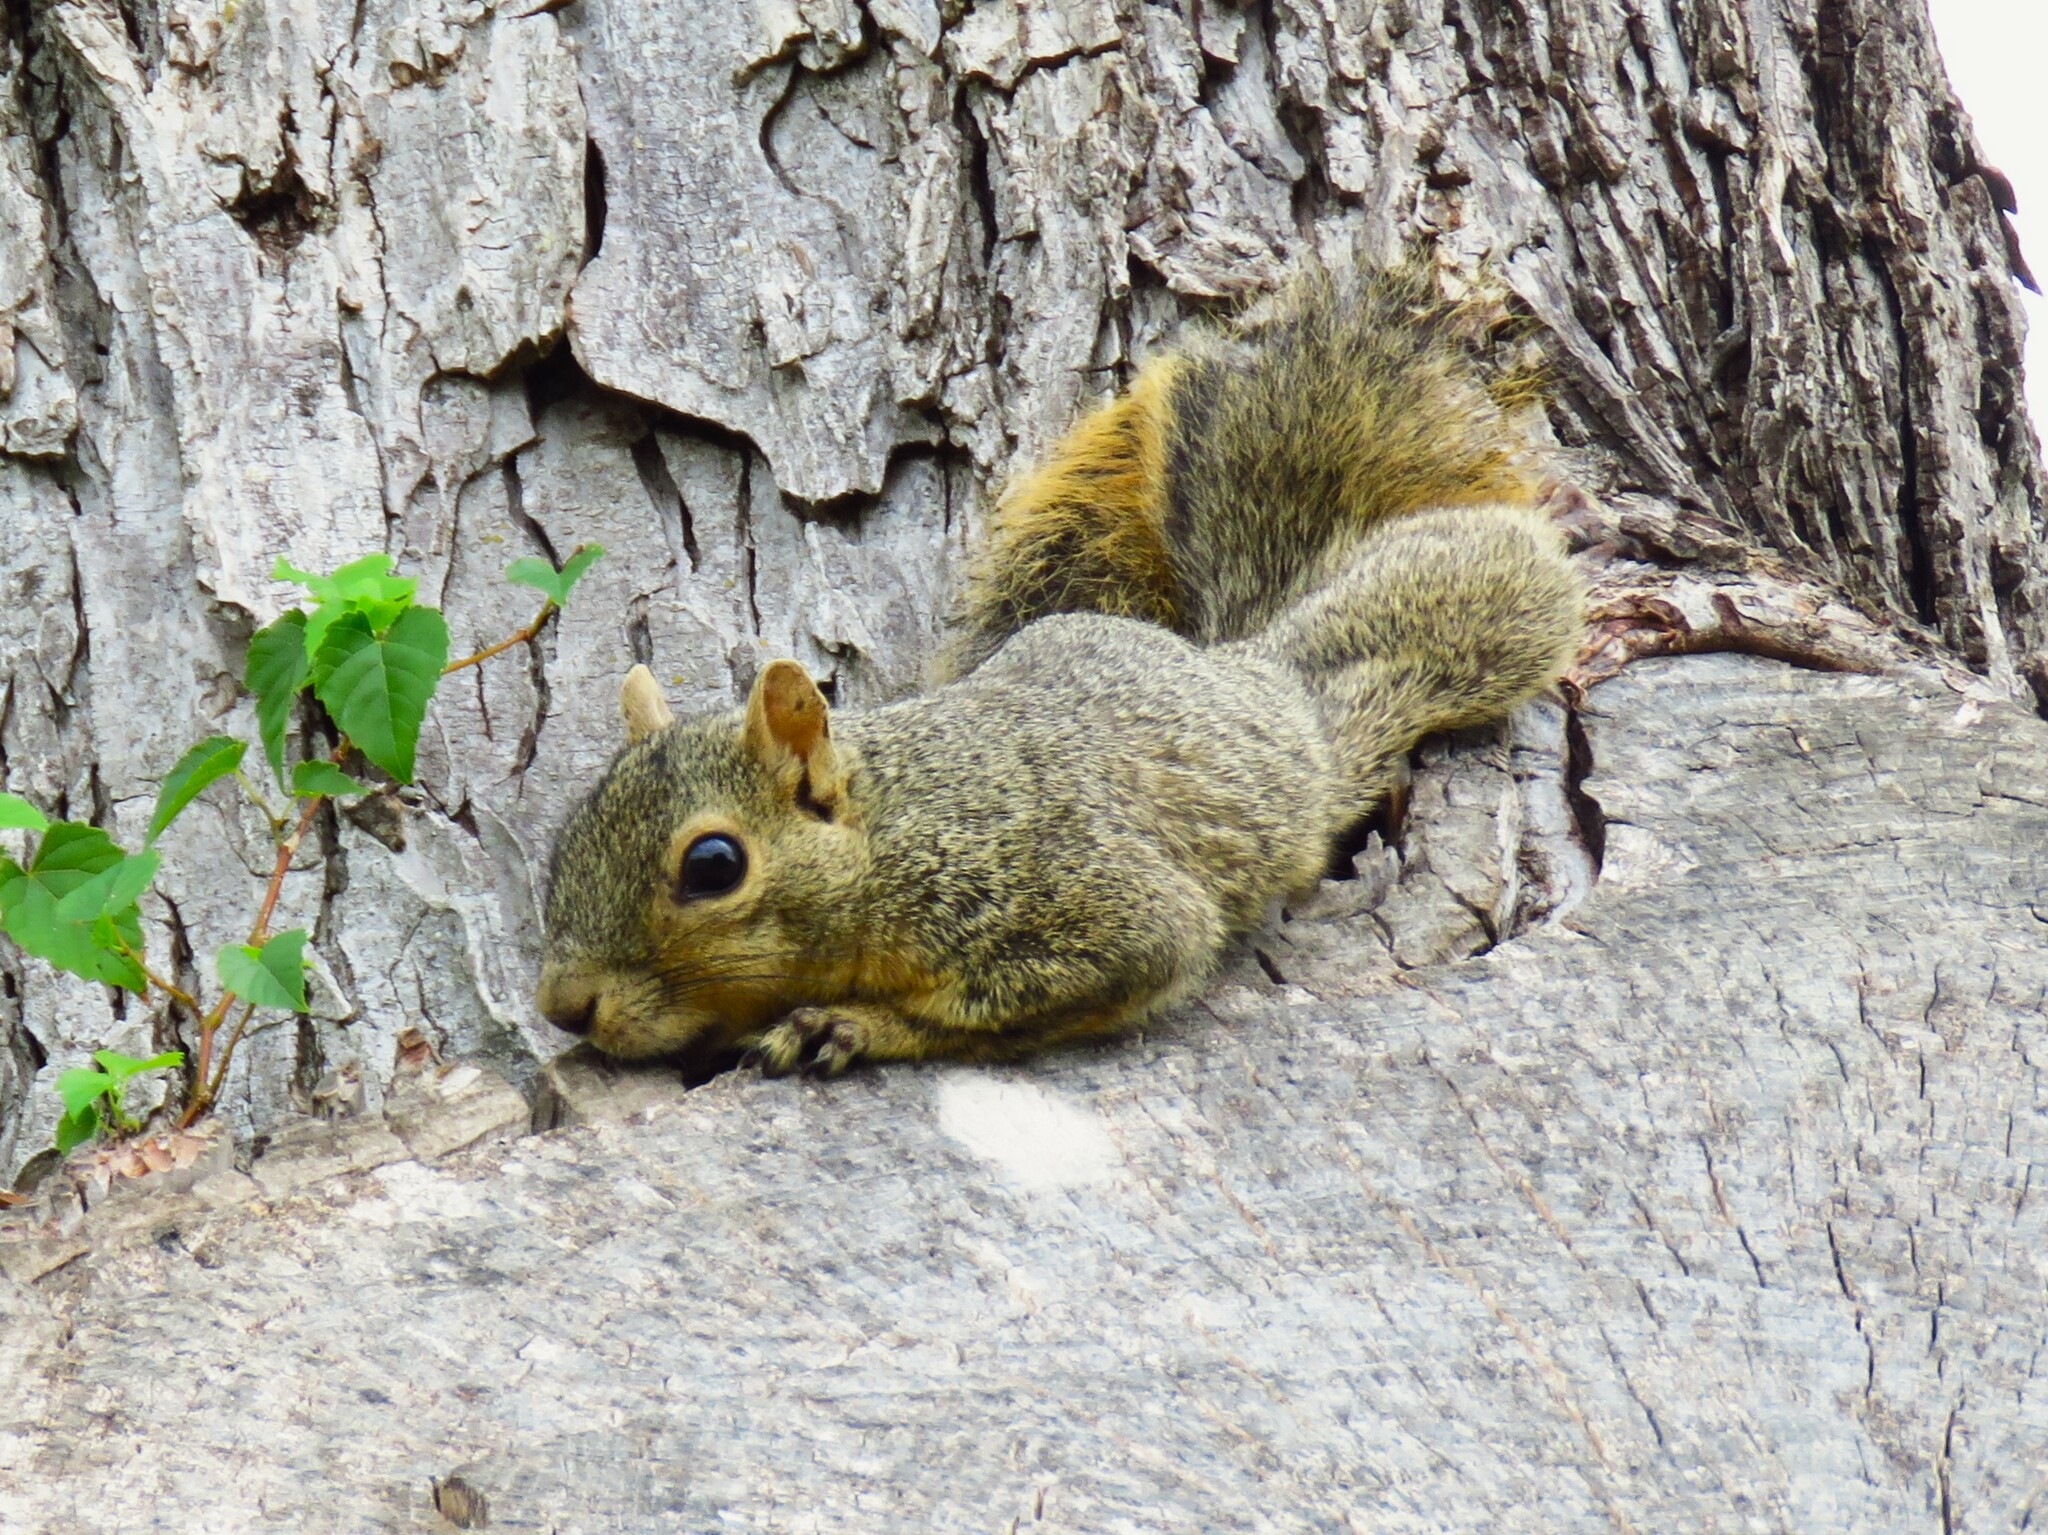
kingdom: Animalia
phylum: Chordata
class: Mammalia
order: Rodentia
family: Sciuridae
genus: Sciurus
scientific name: Sciurus niger
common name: Fox squirrel
